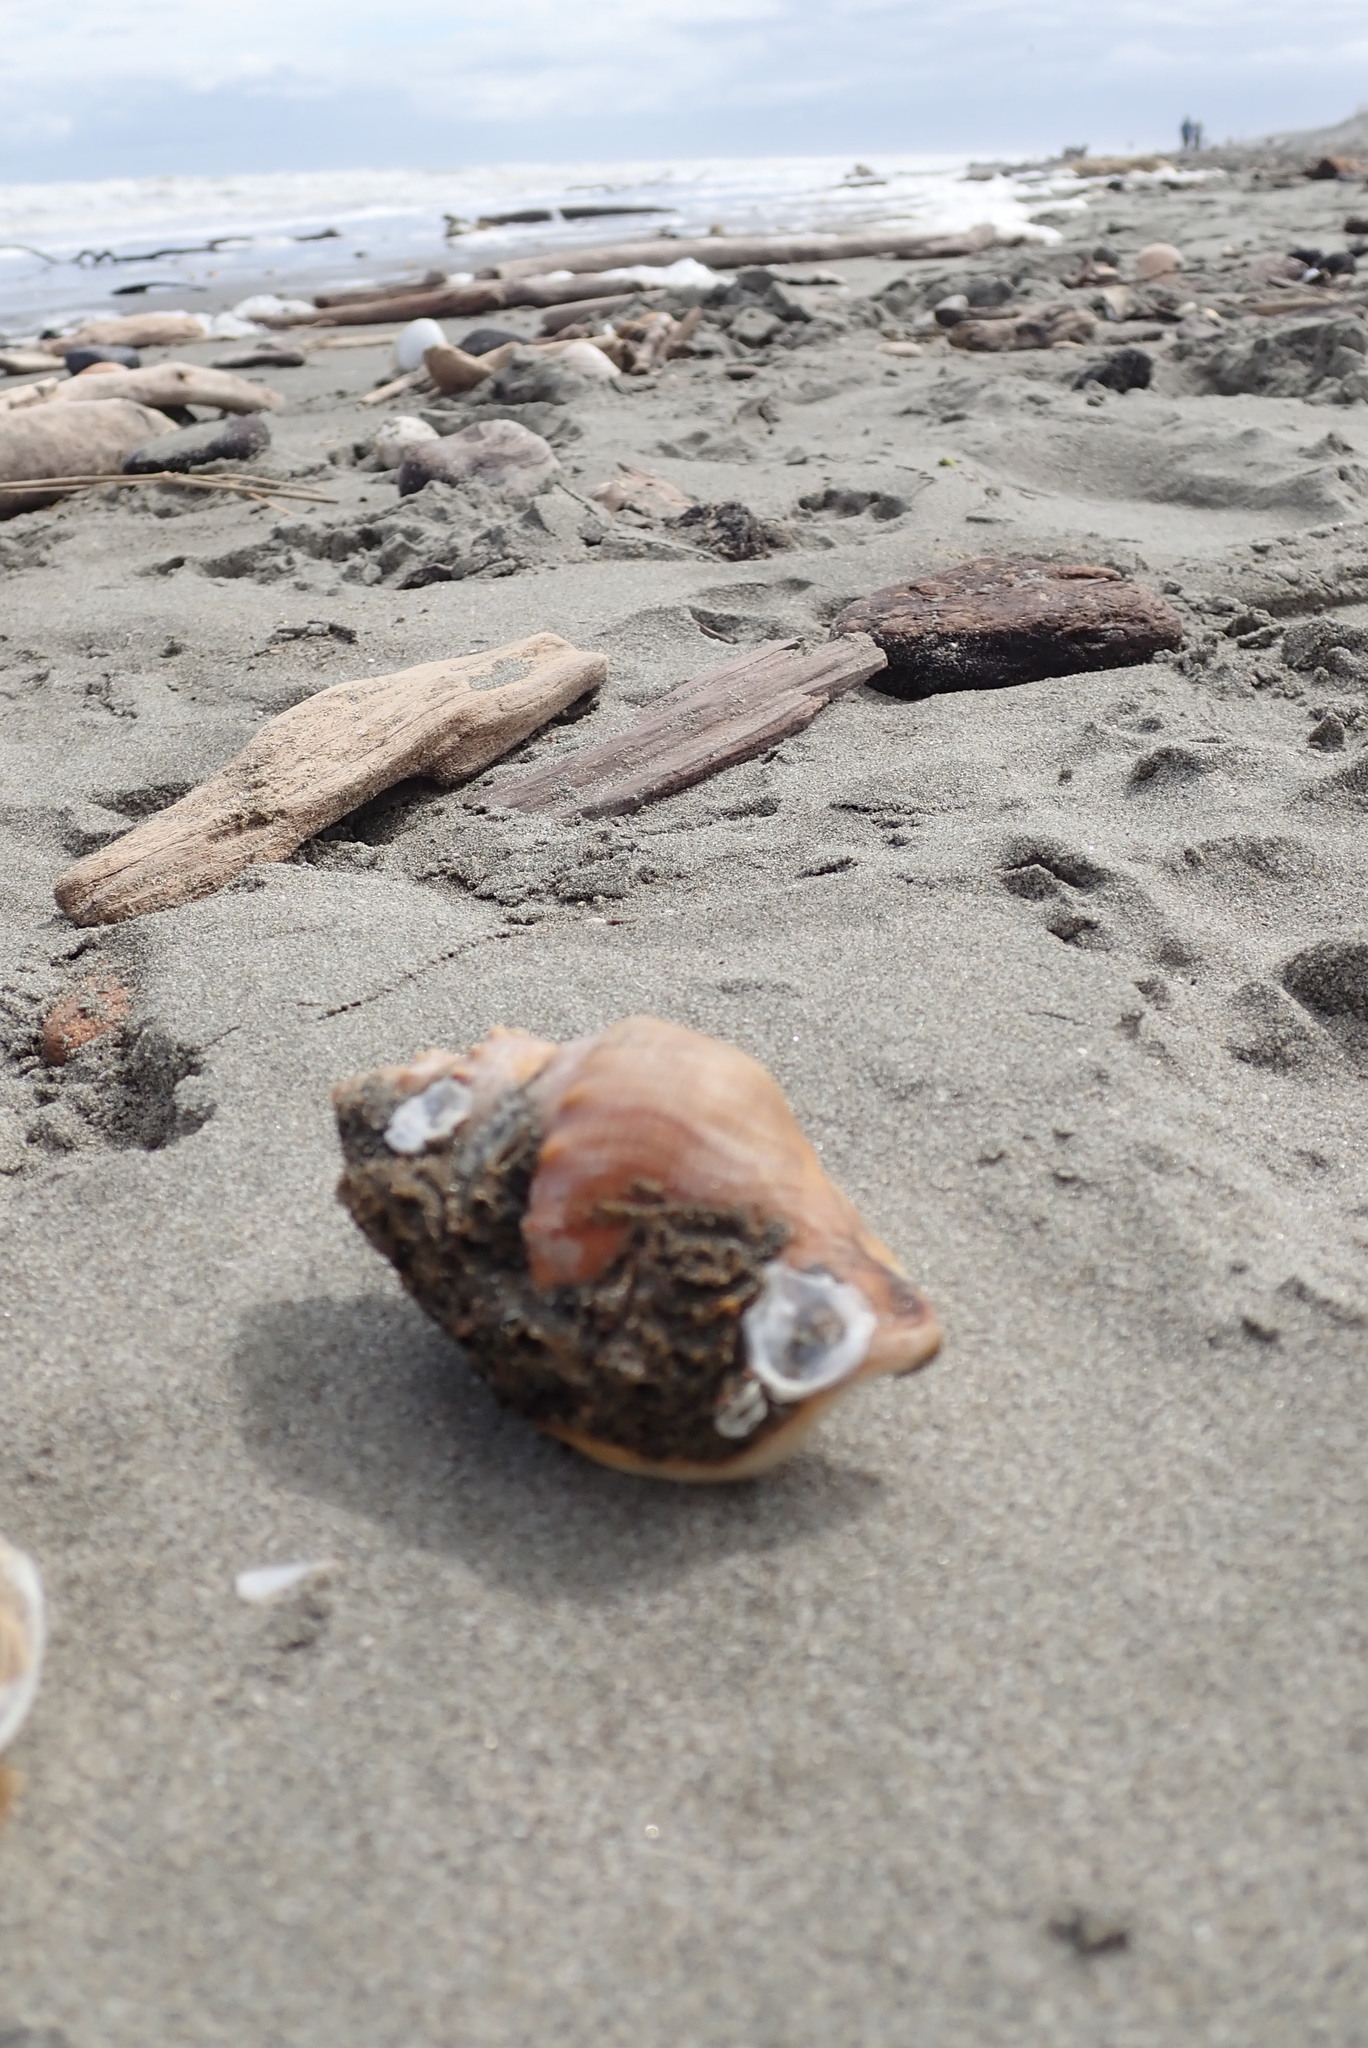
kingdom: Animalia
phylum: Mollusca
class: Gastropoda
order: Littorinimorpha
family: Struthiolariidae
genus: Struthiolaria
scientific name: Struthiolaria papulosa
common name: Large ostrich foot
